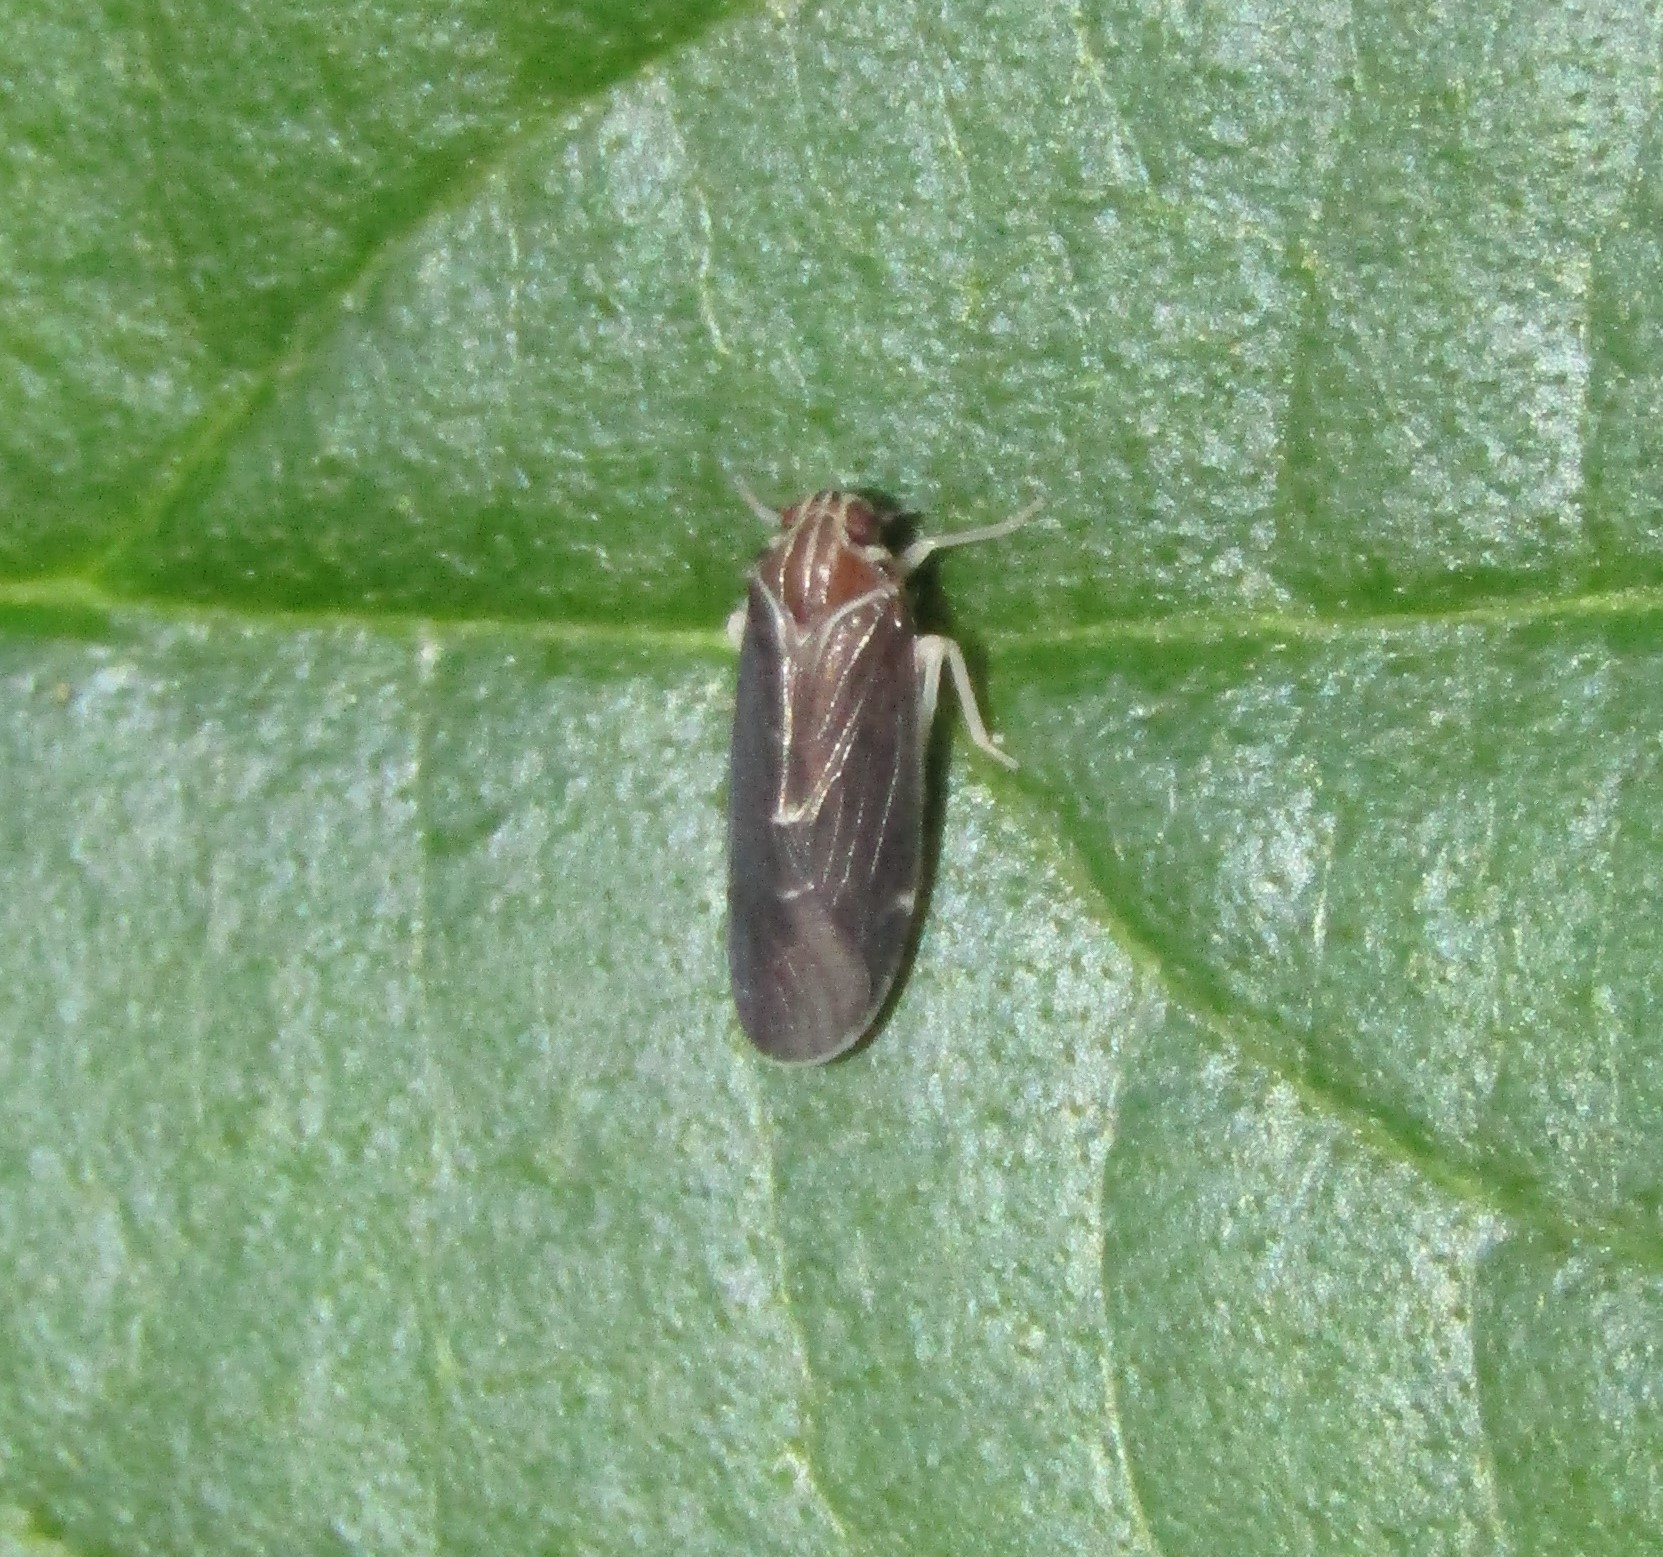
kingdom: Animalia
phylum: Arthropoda
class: Insecta
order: Hemiptera
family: Achilidae
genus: Synecdoche
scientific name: Synecdoche impunctata
